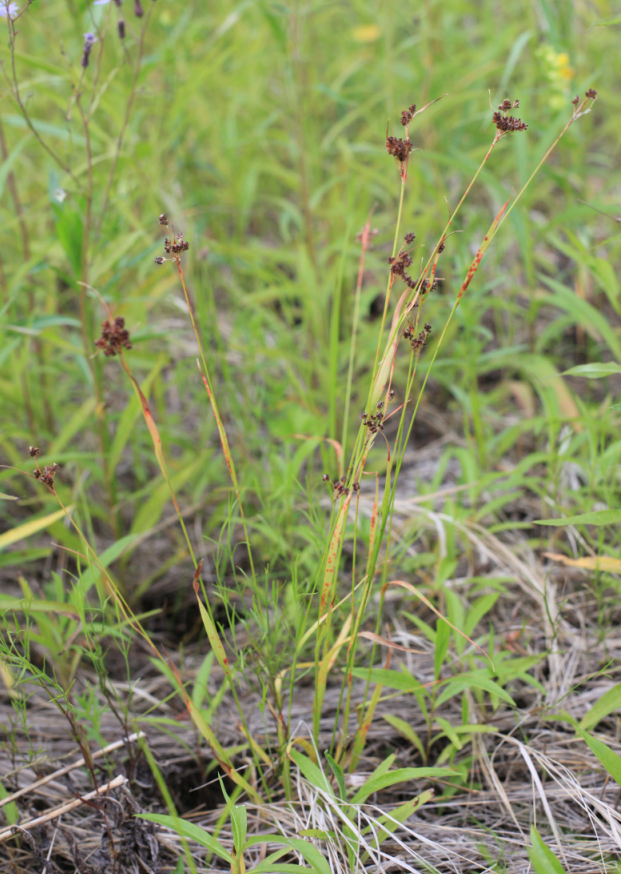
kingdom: Plantae
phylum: Tracheophyta
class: Liliopsida
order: Poales
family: Juncaceae
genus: Luzula
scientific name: Luzula rufescens
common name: Reddish woodrush
